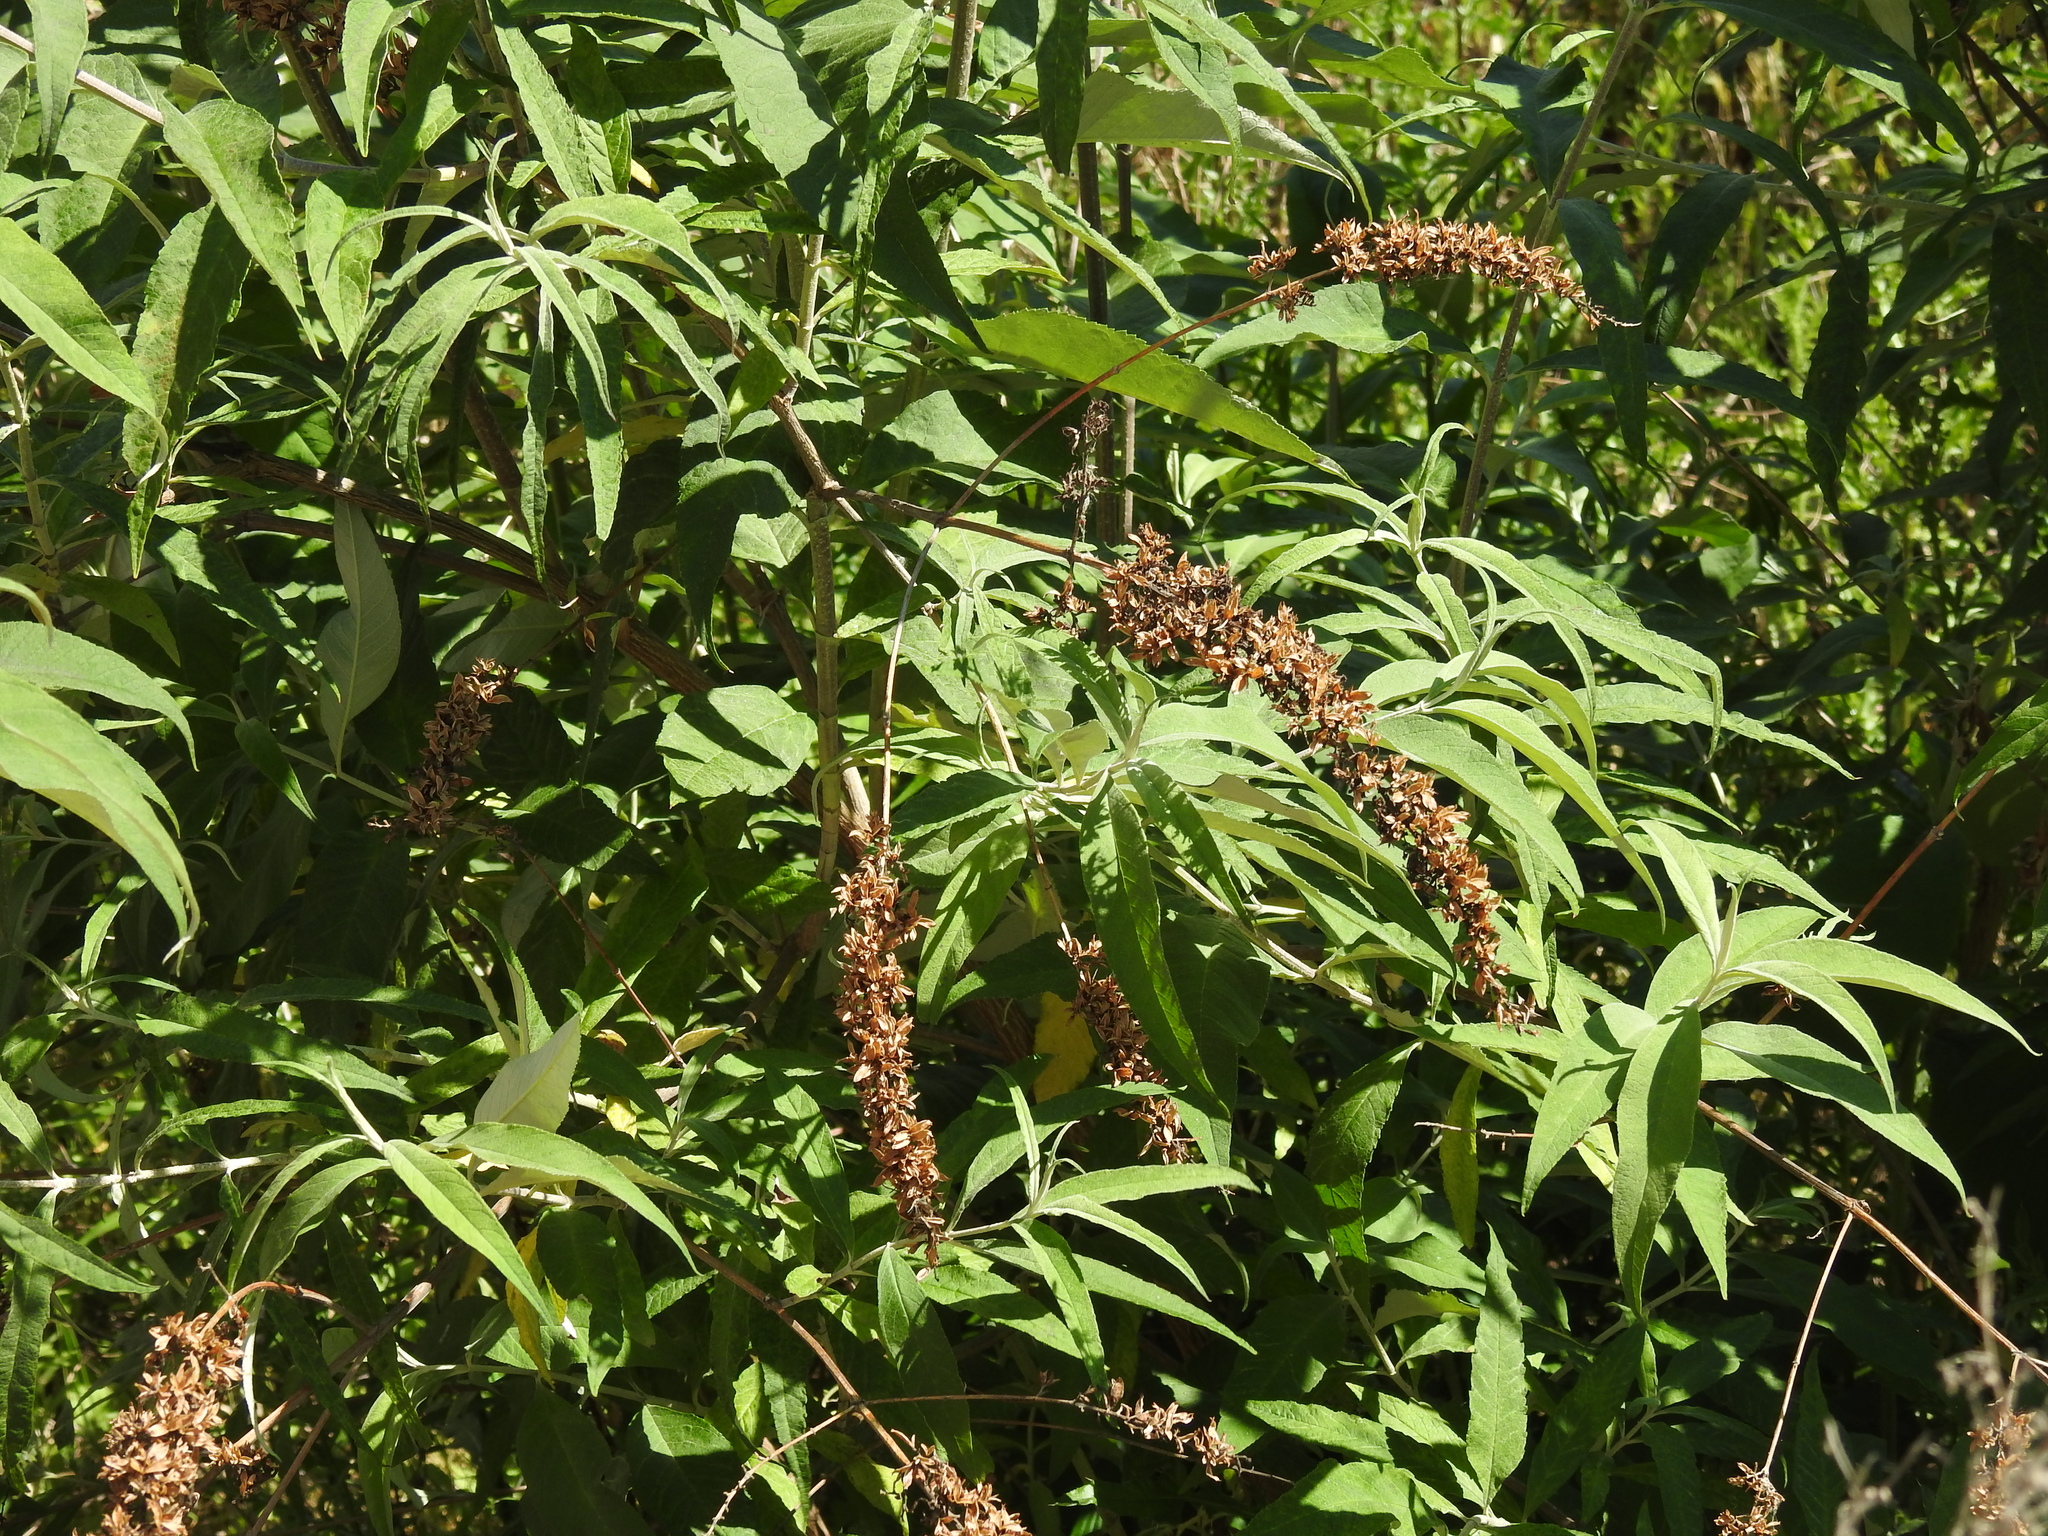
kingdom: Plantae
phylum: Tracheophyta
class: Magnoliopsida
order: Lamiales
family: Scrophulariaceae
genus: Buddleja
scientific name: Buddleja davidii
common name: Butterfly-bush
